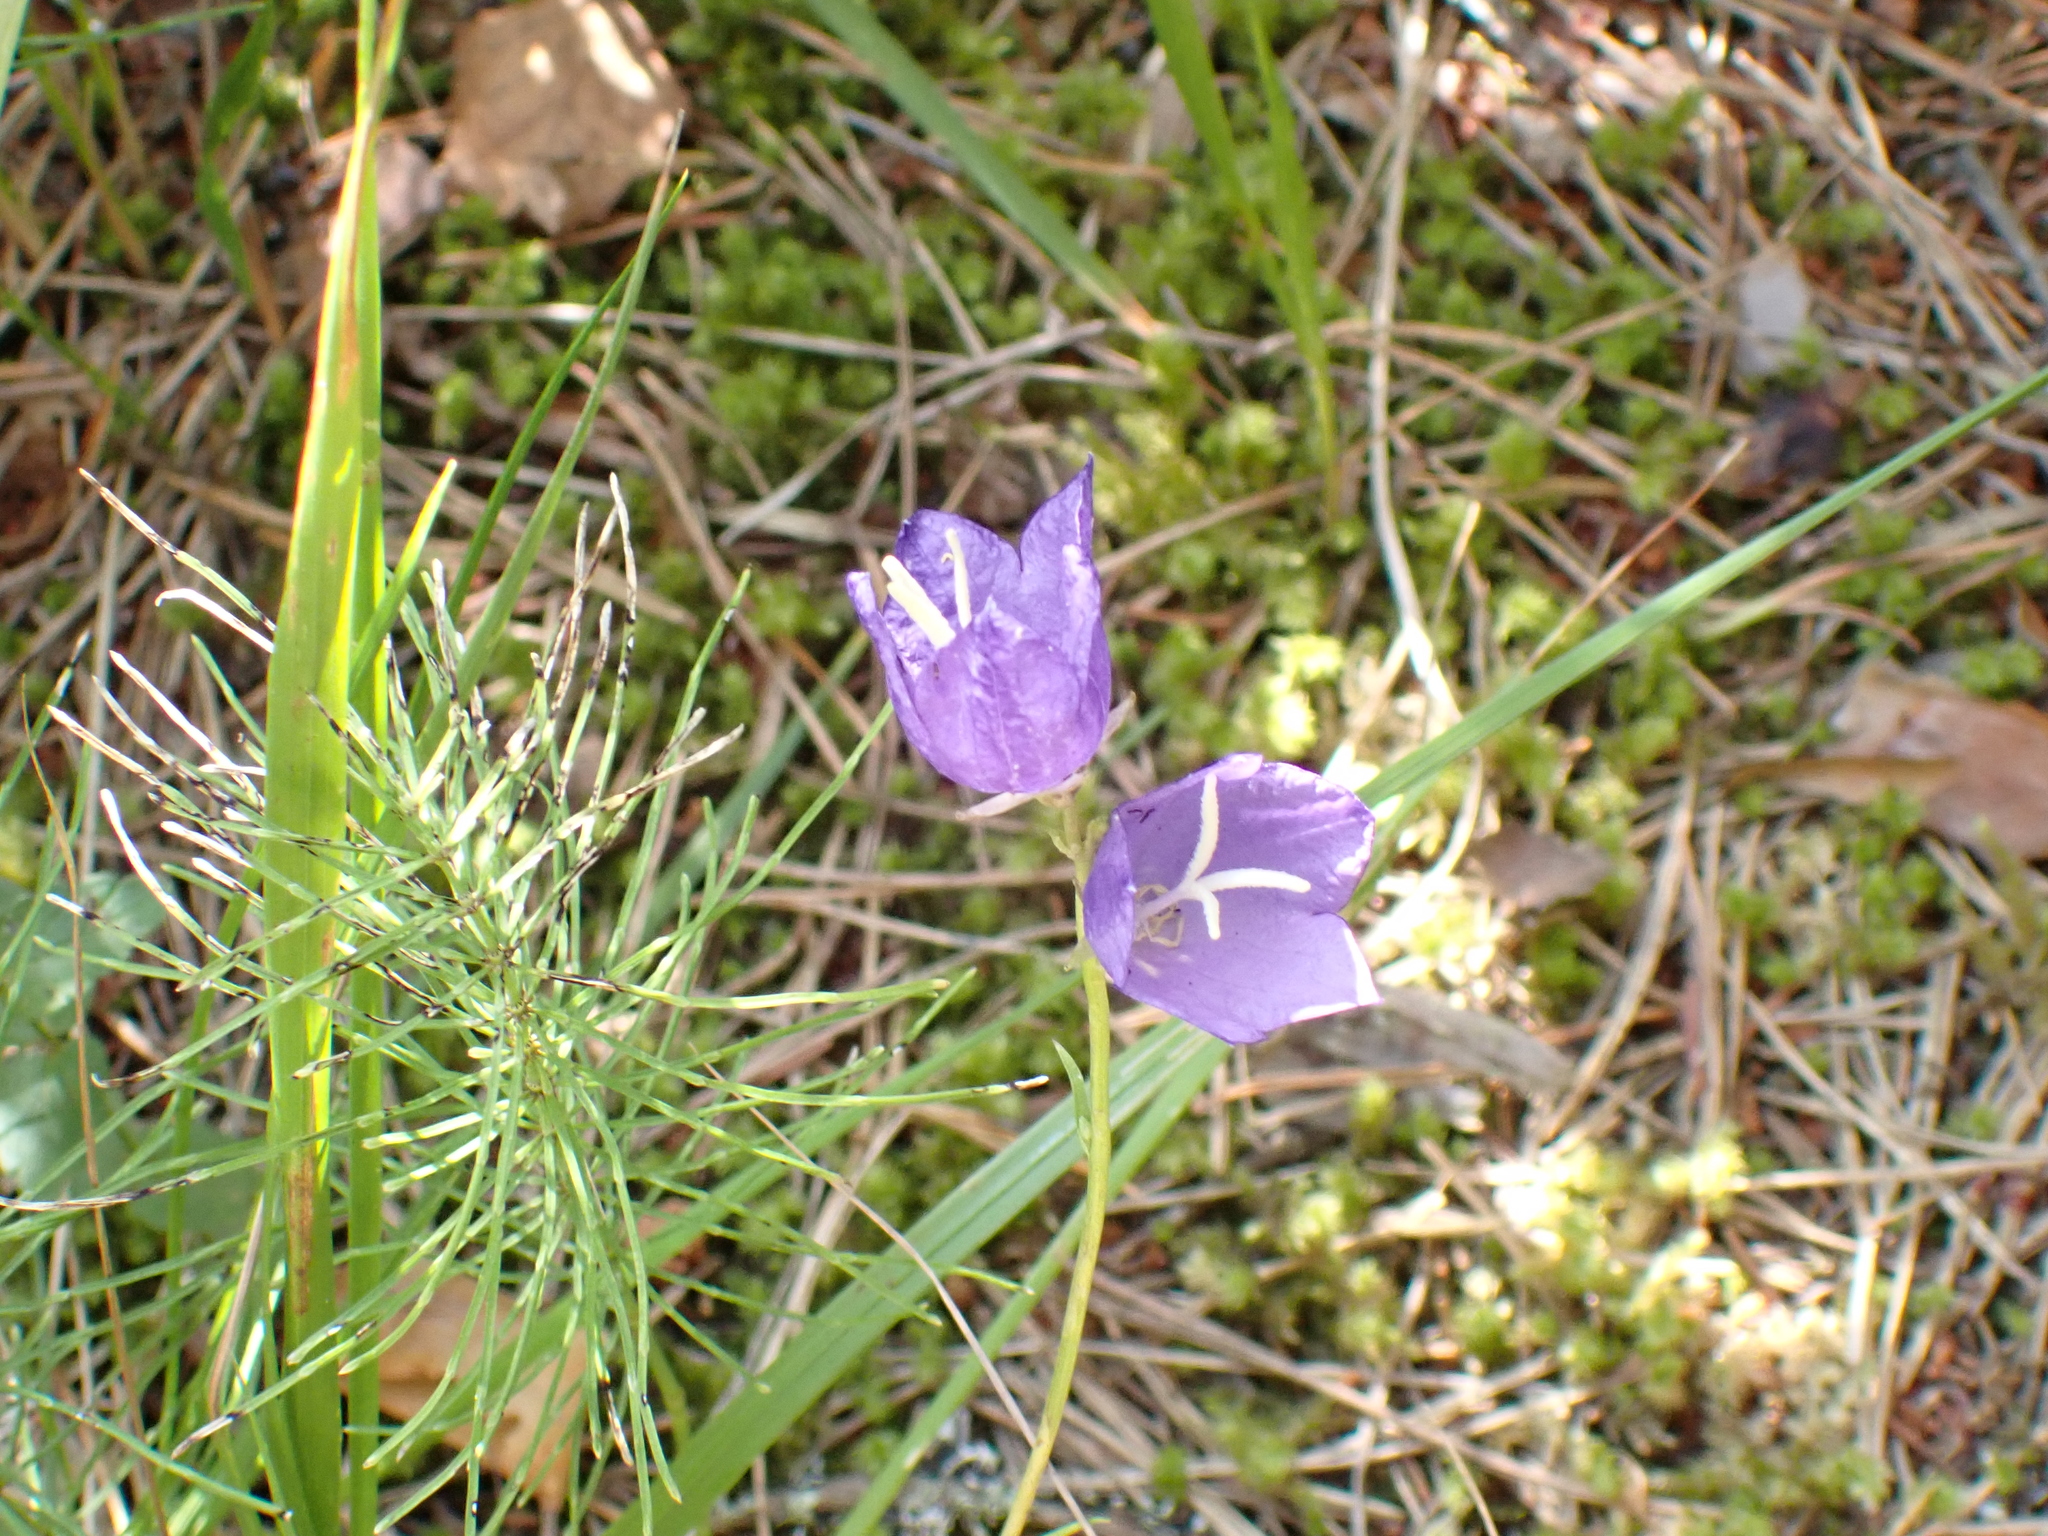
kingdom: Plantae
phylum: Tracheophyta
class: Magnoliopsida
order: Asterales
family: Campanulaceae
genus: Campanula
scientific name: Campanula persicifolia
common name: Peach-leaved bellflower
